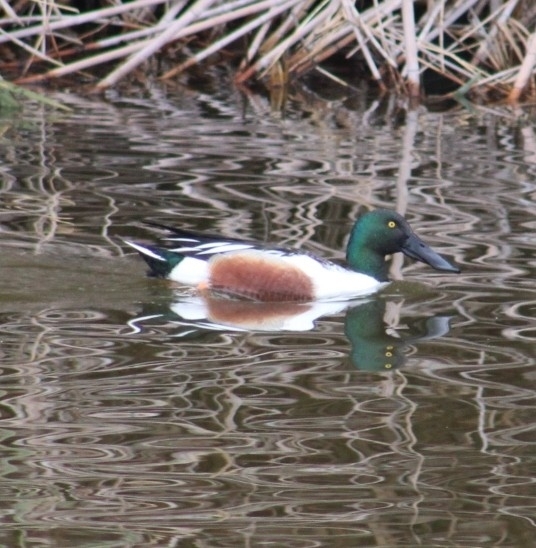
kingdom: Animalia
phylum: Chordata
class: Aves
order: Anseriformes
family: Anatidae
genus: Spatula
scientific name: Spatula clypeata
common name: Northern shoveler
